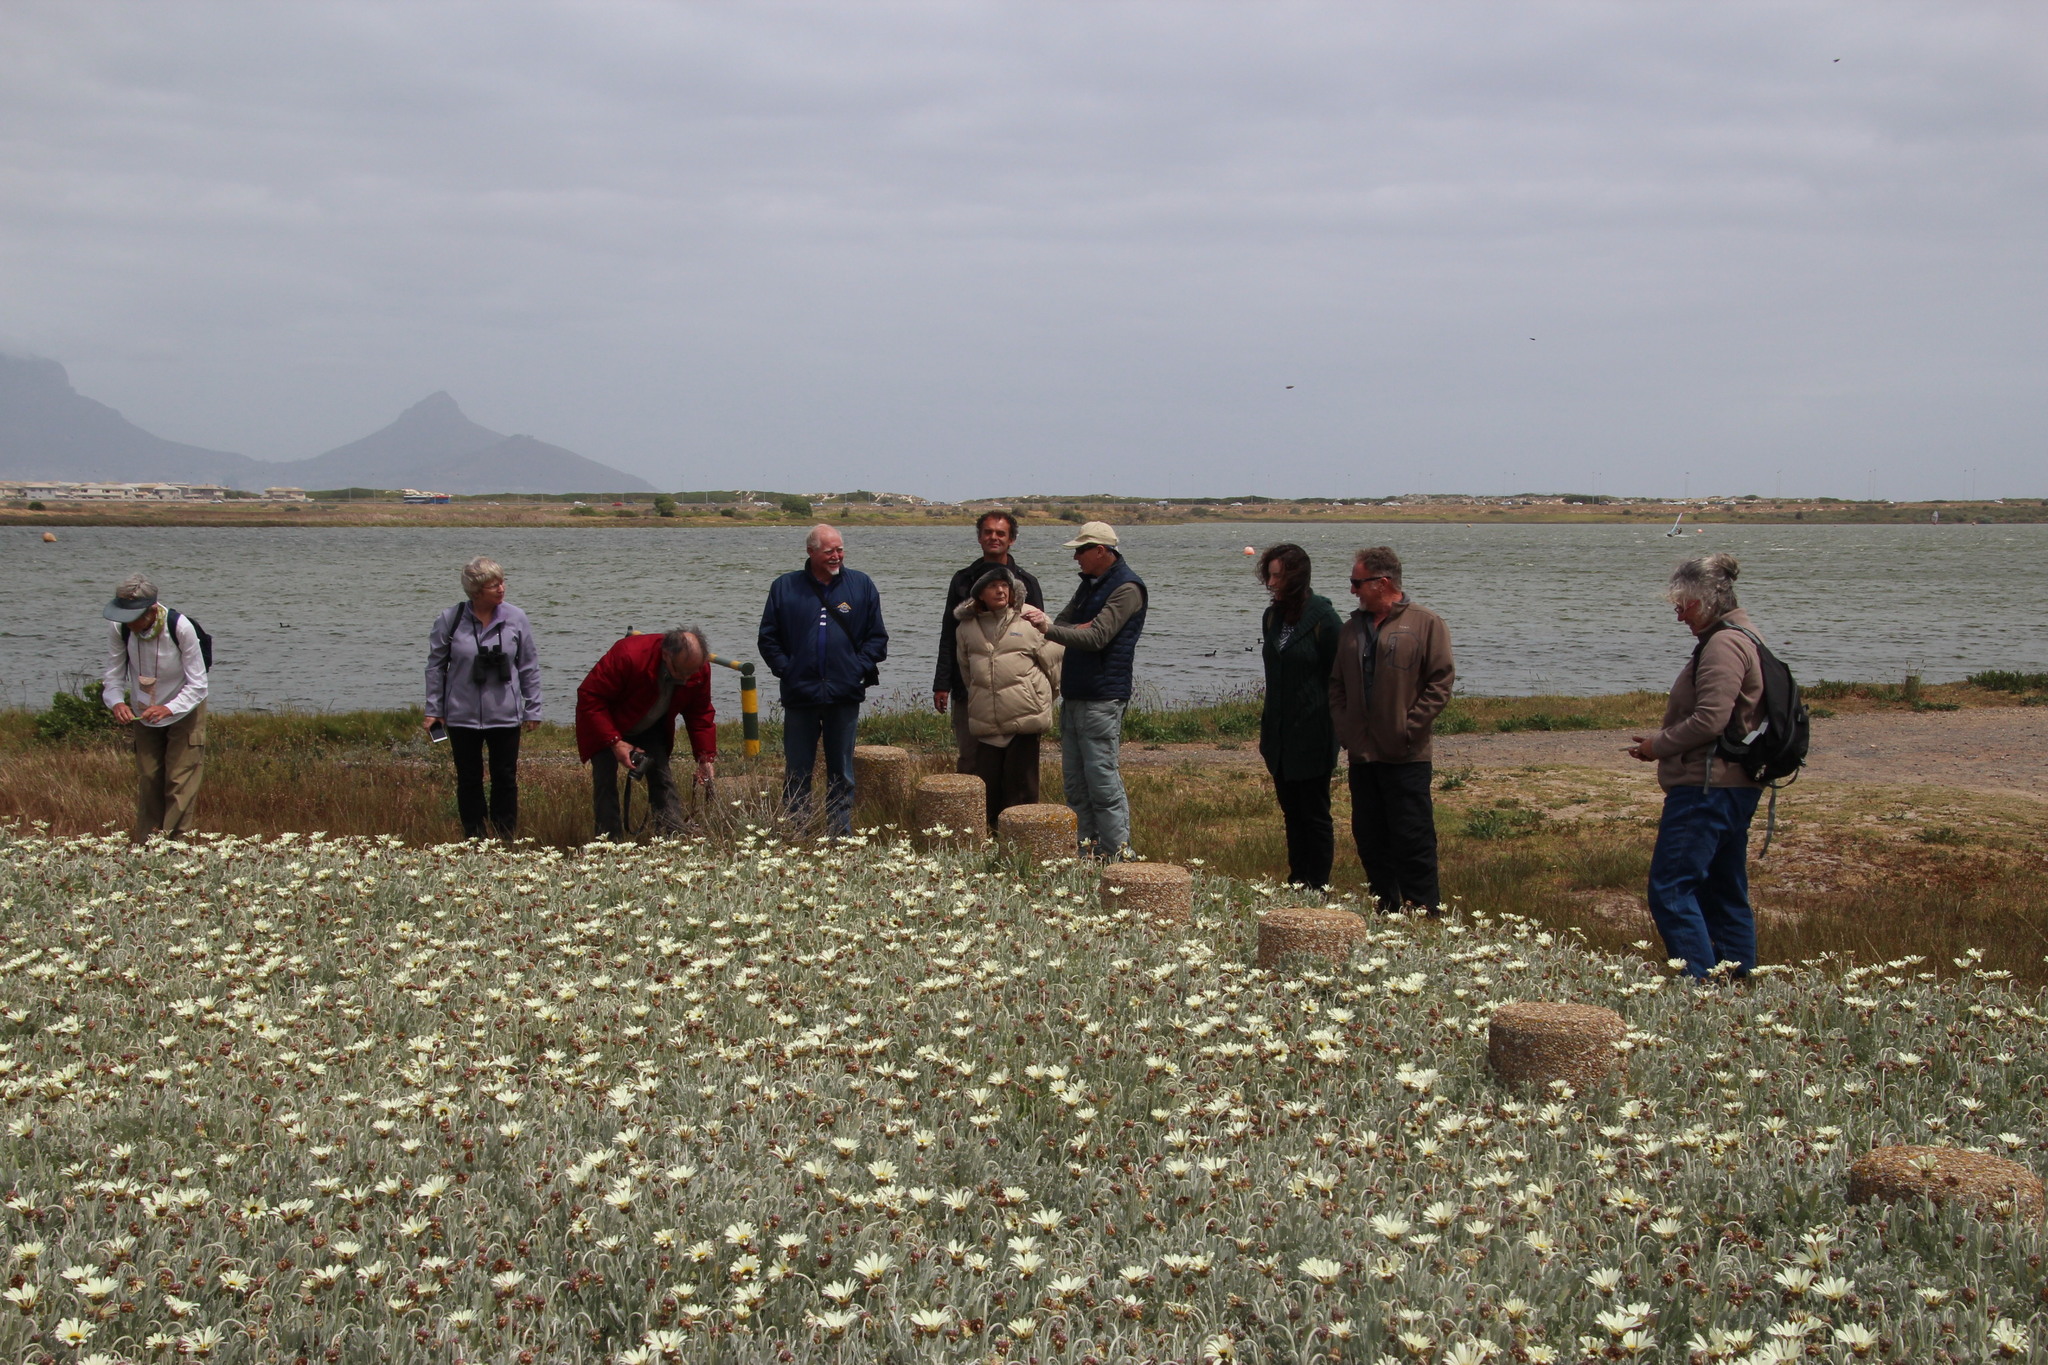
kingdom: Plantae
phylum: Tracheophyta
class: Magnoliopsida
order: Asterales
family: Asteraceae
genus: Arctotis
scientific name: Arctotis stoechadifolia
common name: African daisy
